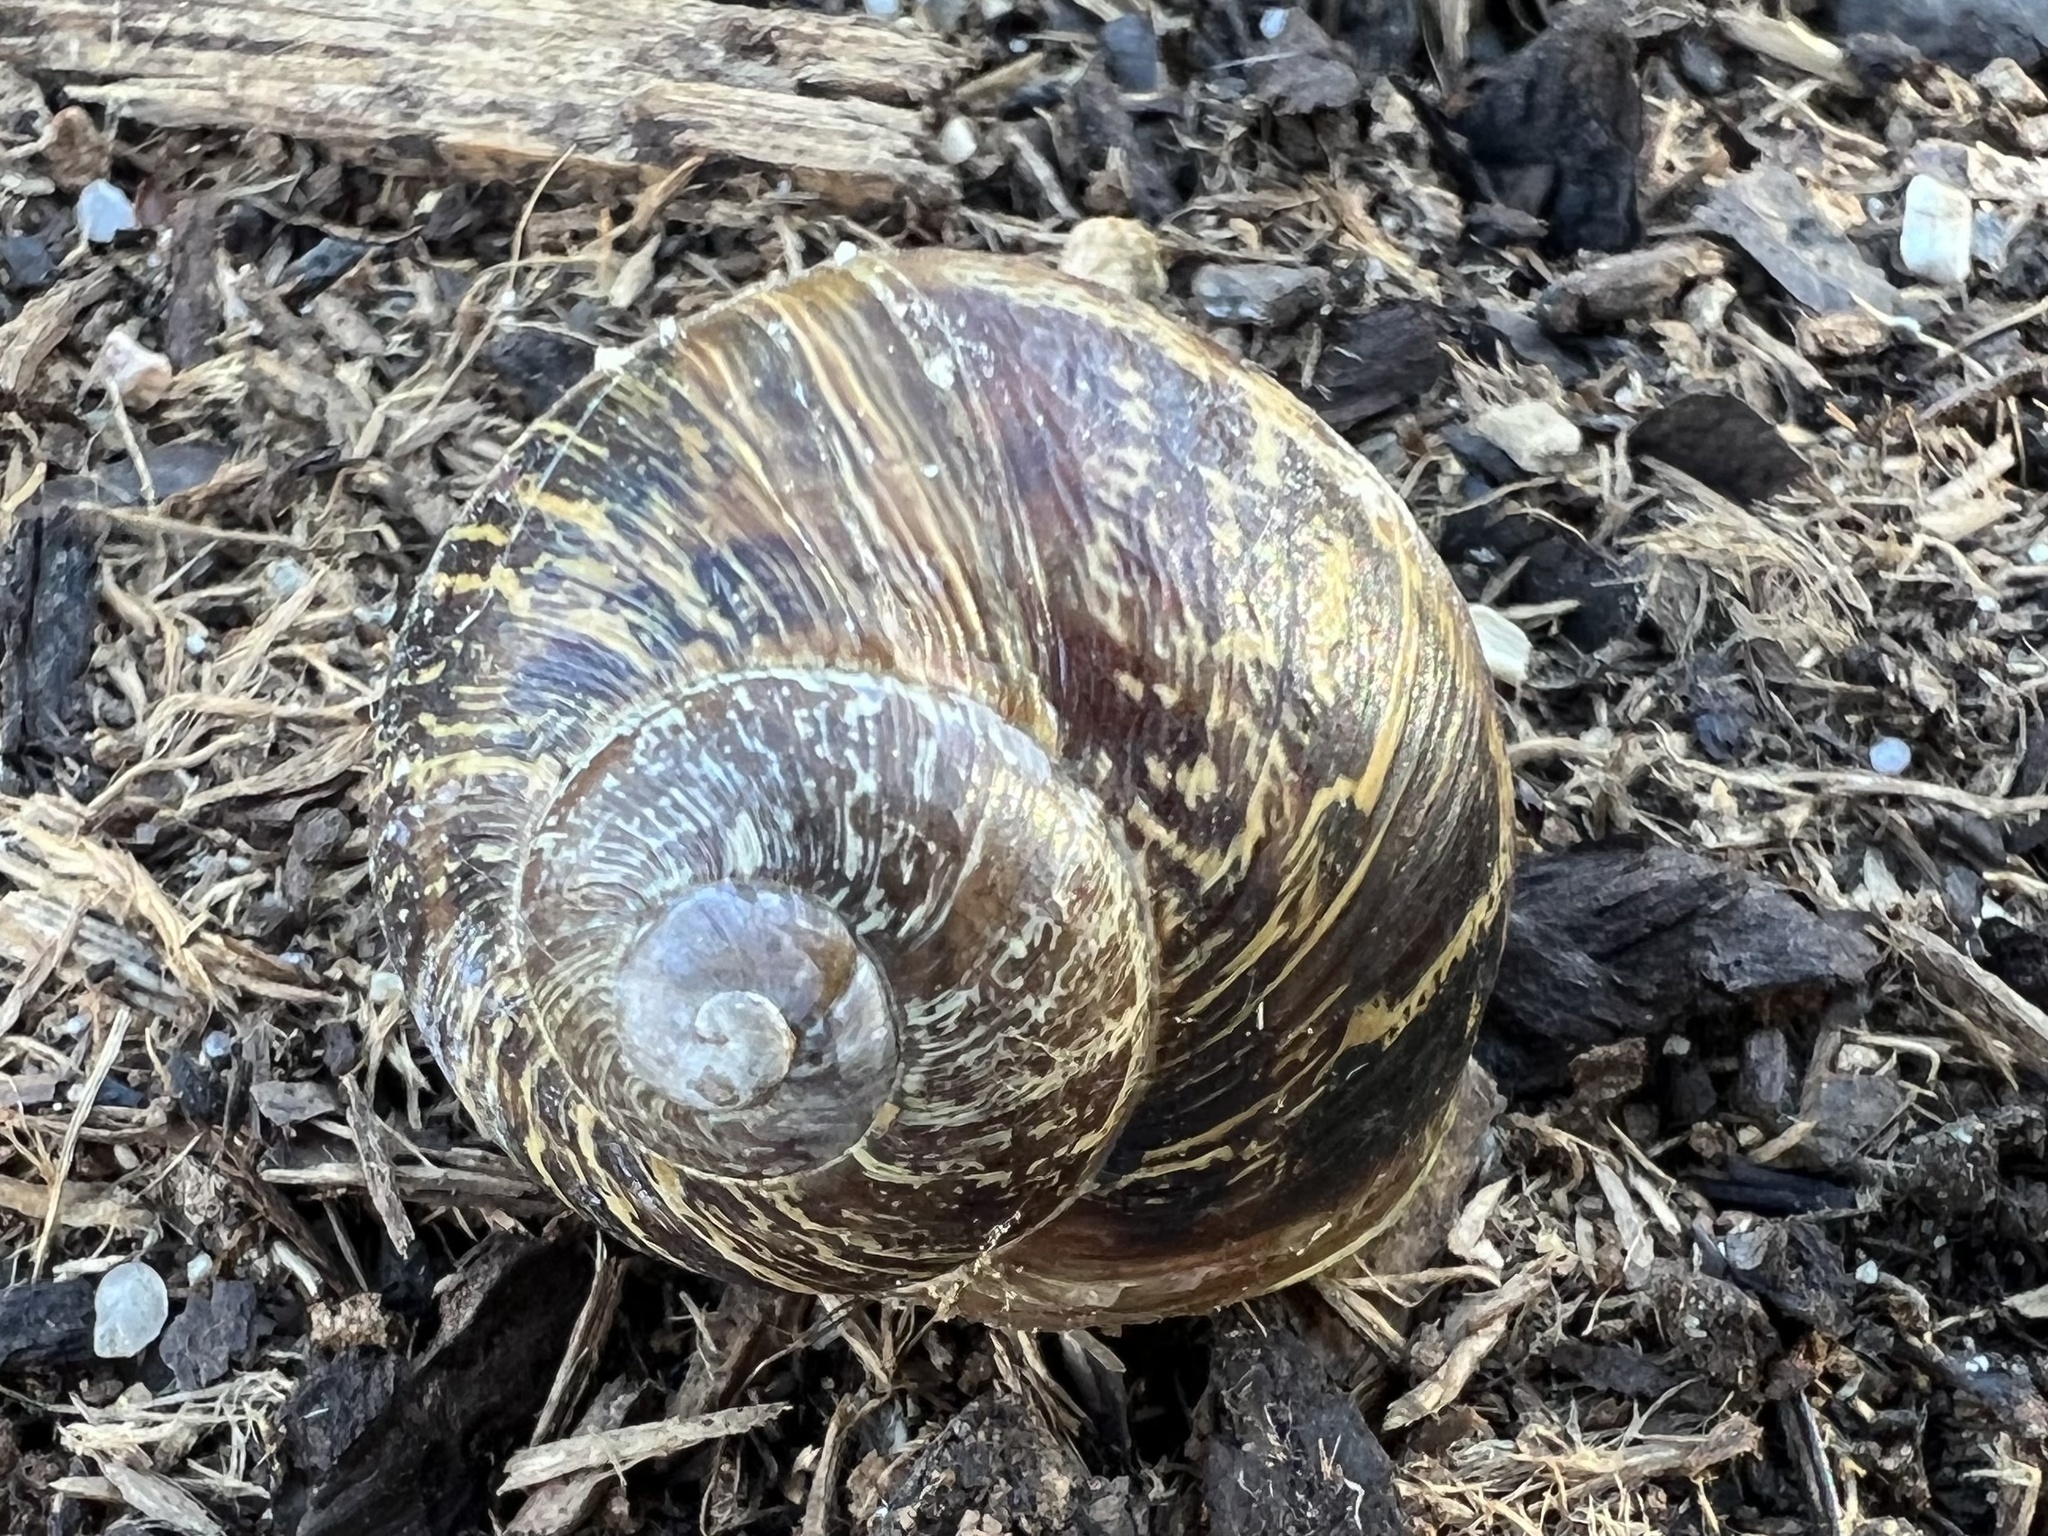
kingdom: Animalia
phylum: Mollusca
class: Gastropoda
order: Stylommatophora
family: Helicidae
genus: Cornu
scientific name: Cornu aspersum
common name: Brown garden snail
